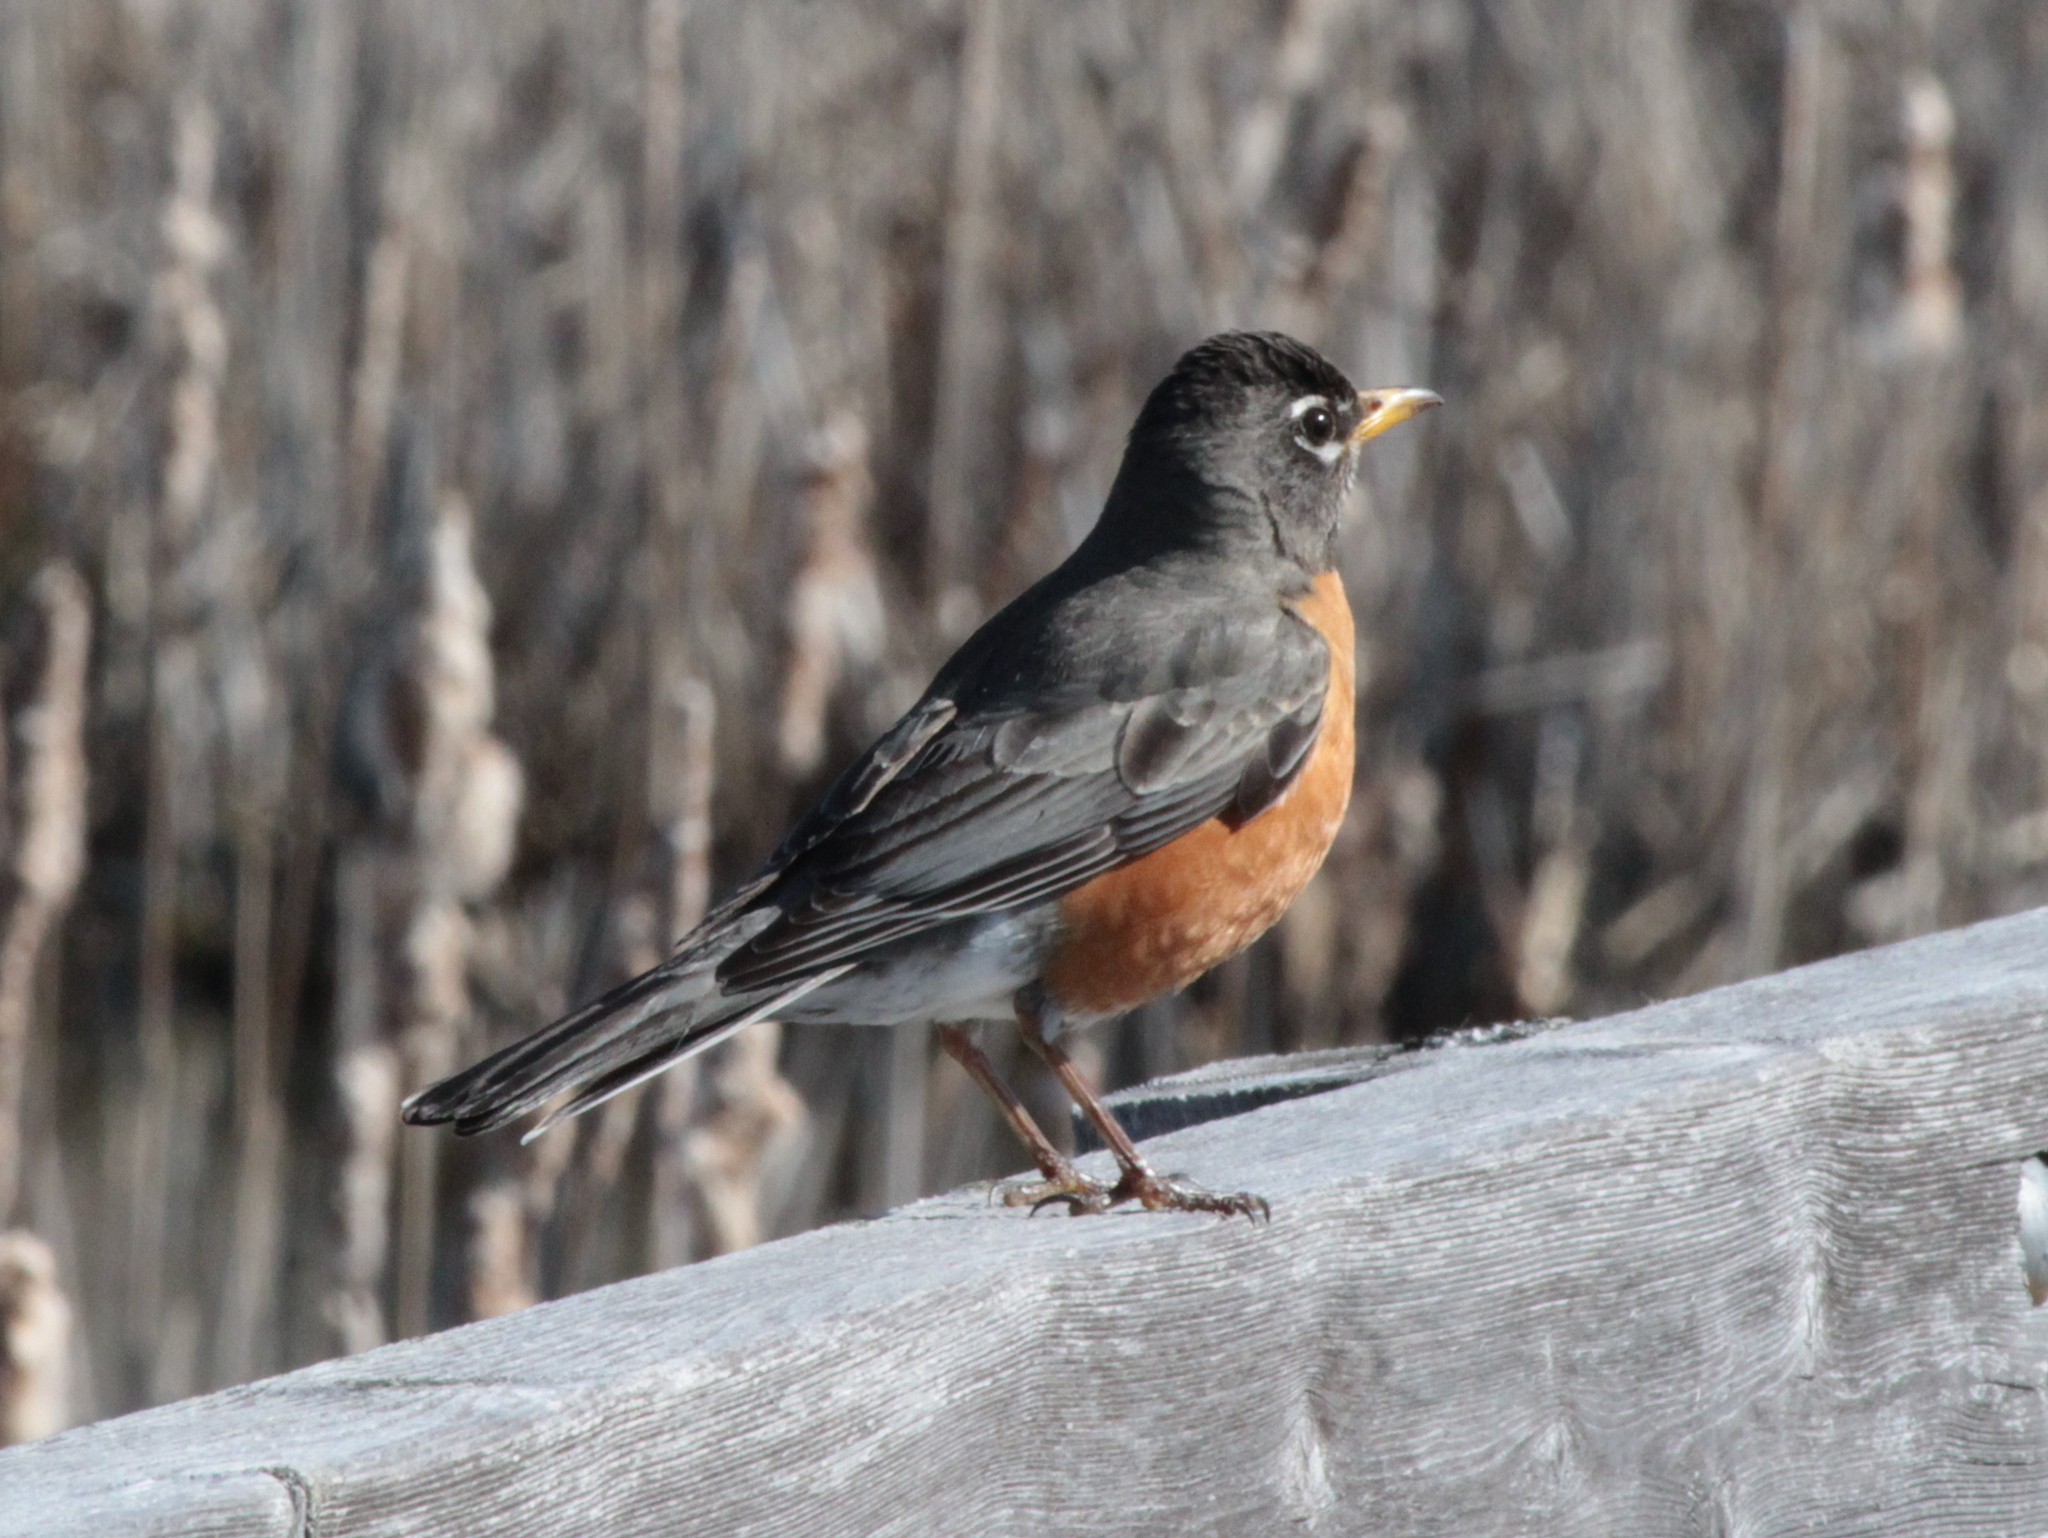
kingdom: Animalia
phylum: Chordata
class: Aves
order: Passeriformes
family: Turdidae
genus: Turdus
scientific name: Turdus migratorius
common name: American robin
